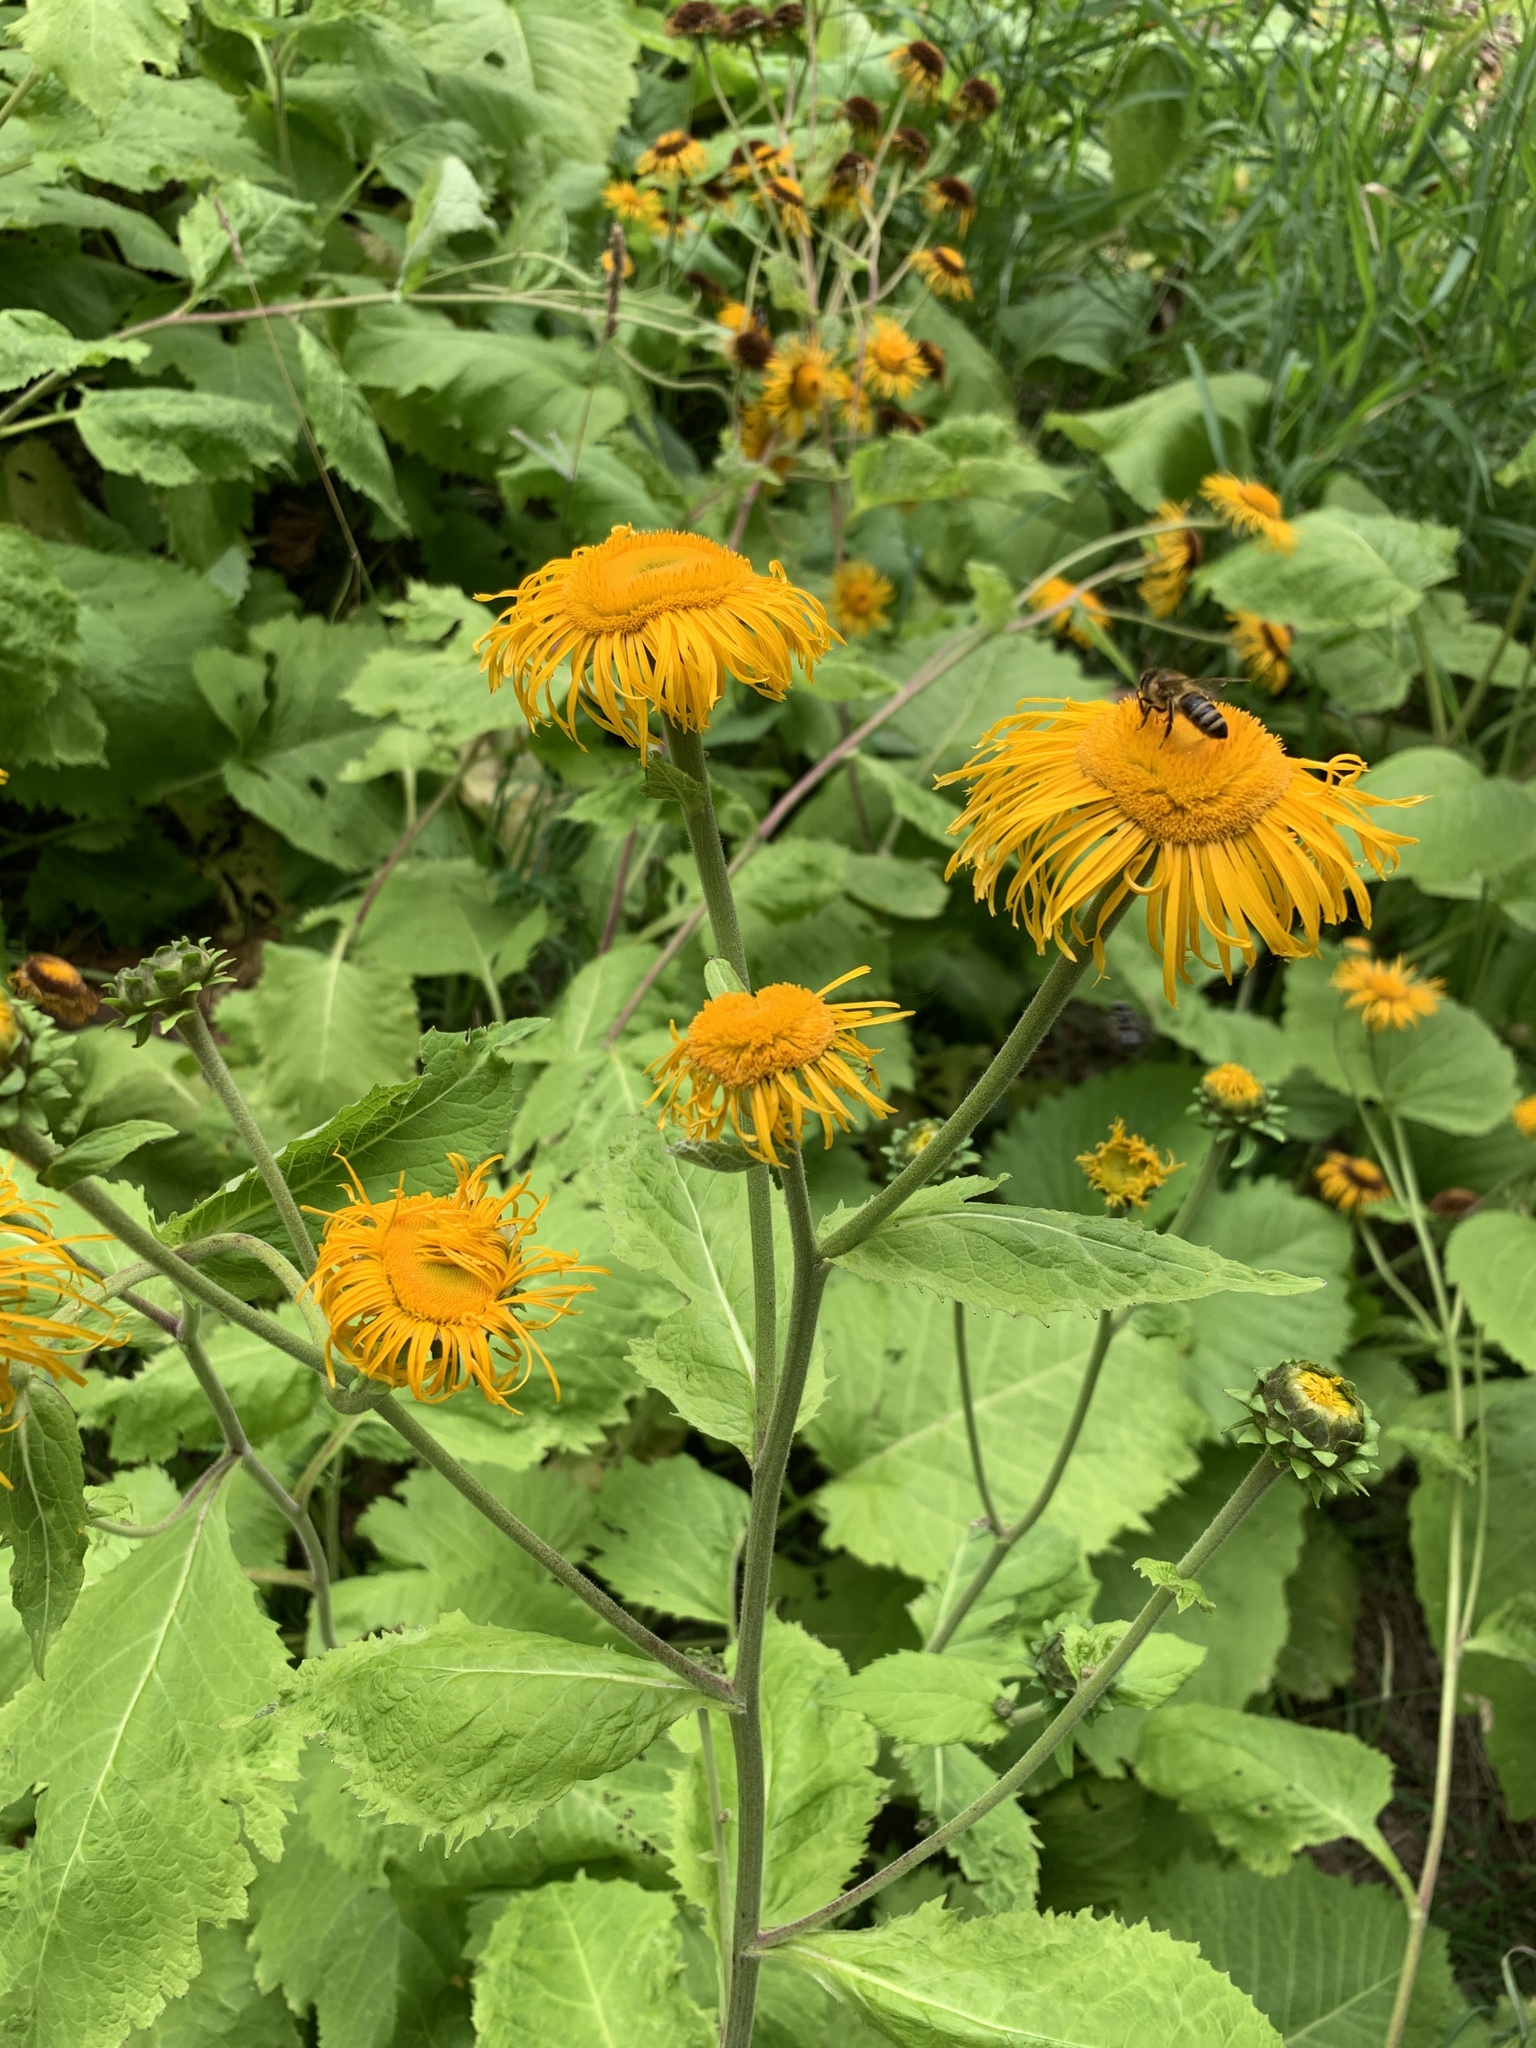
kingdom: Plantae
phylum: Tracheophyta
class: Magnoliopsida
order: Asterales
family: Asteraceae
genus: Telekia
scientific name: Telekia speciosa
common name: Yellow oxeye
